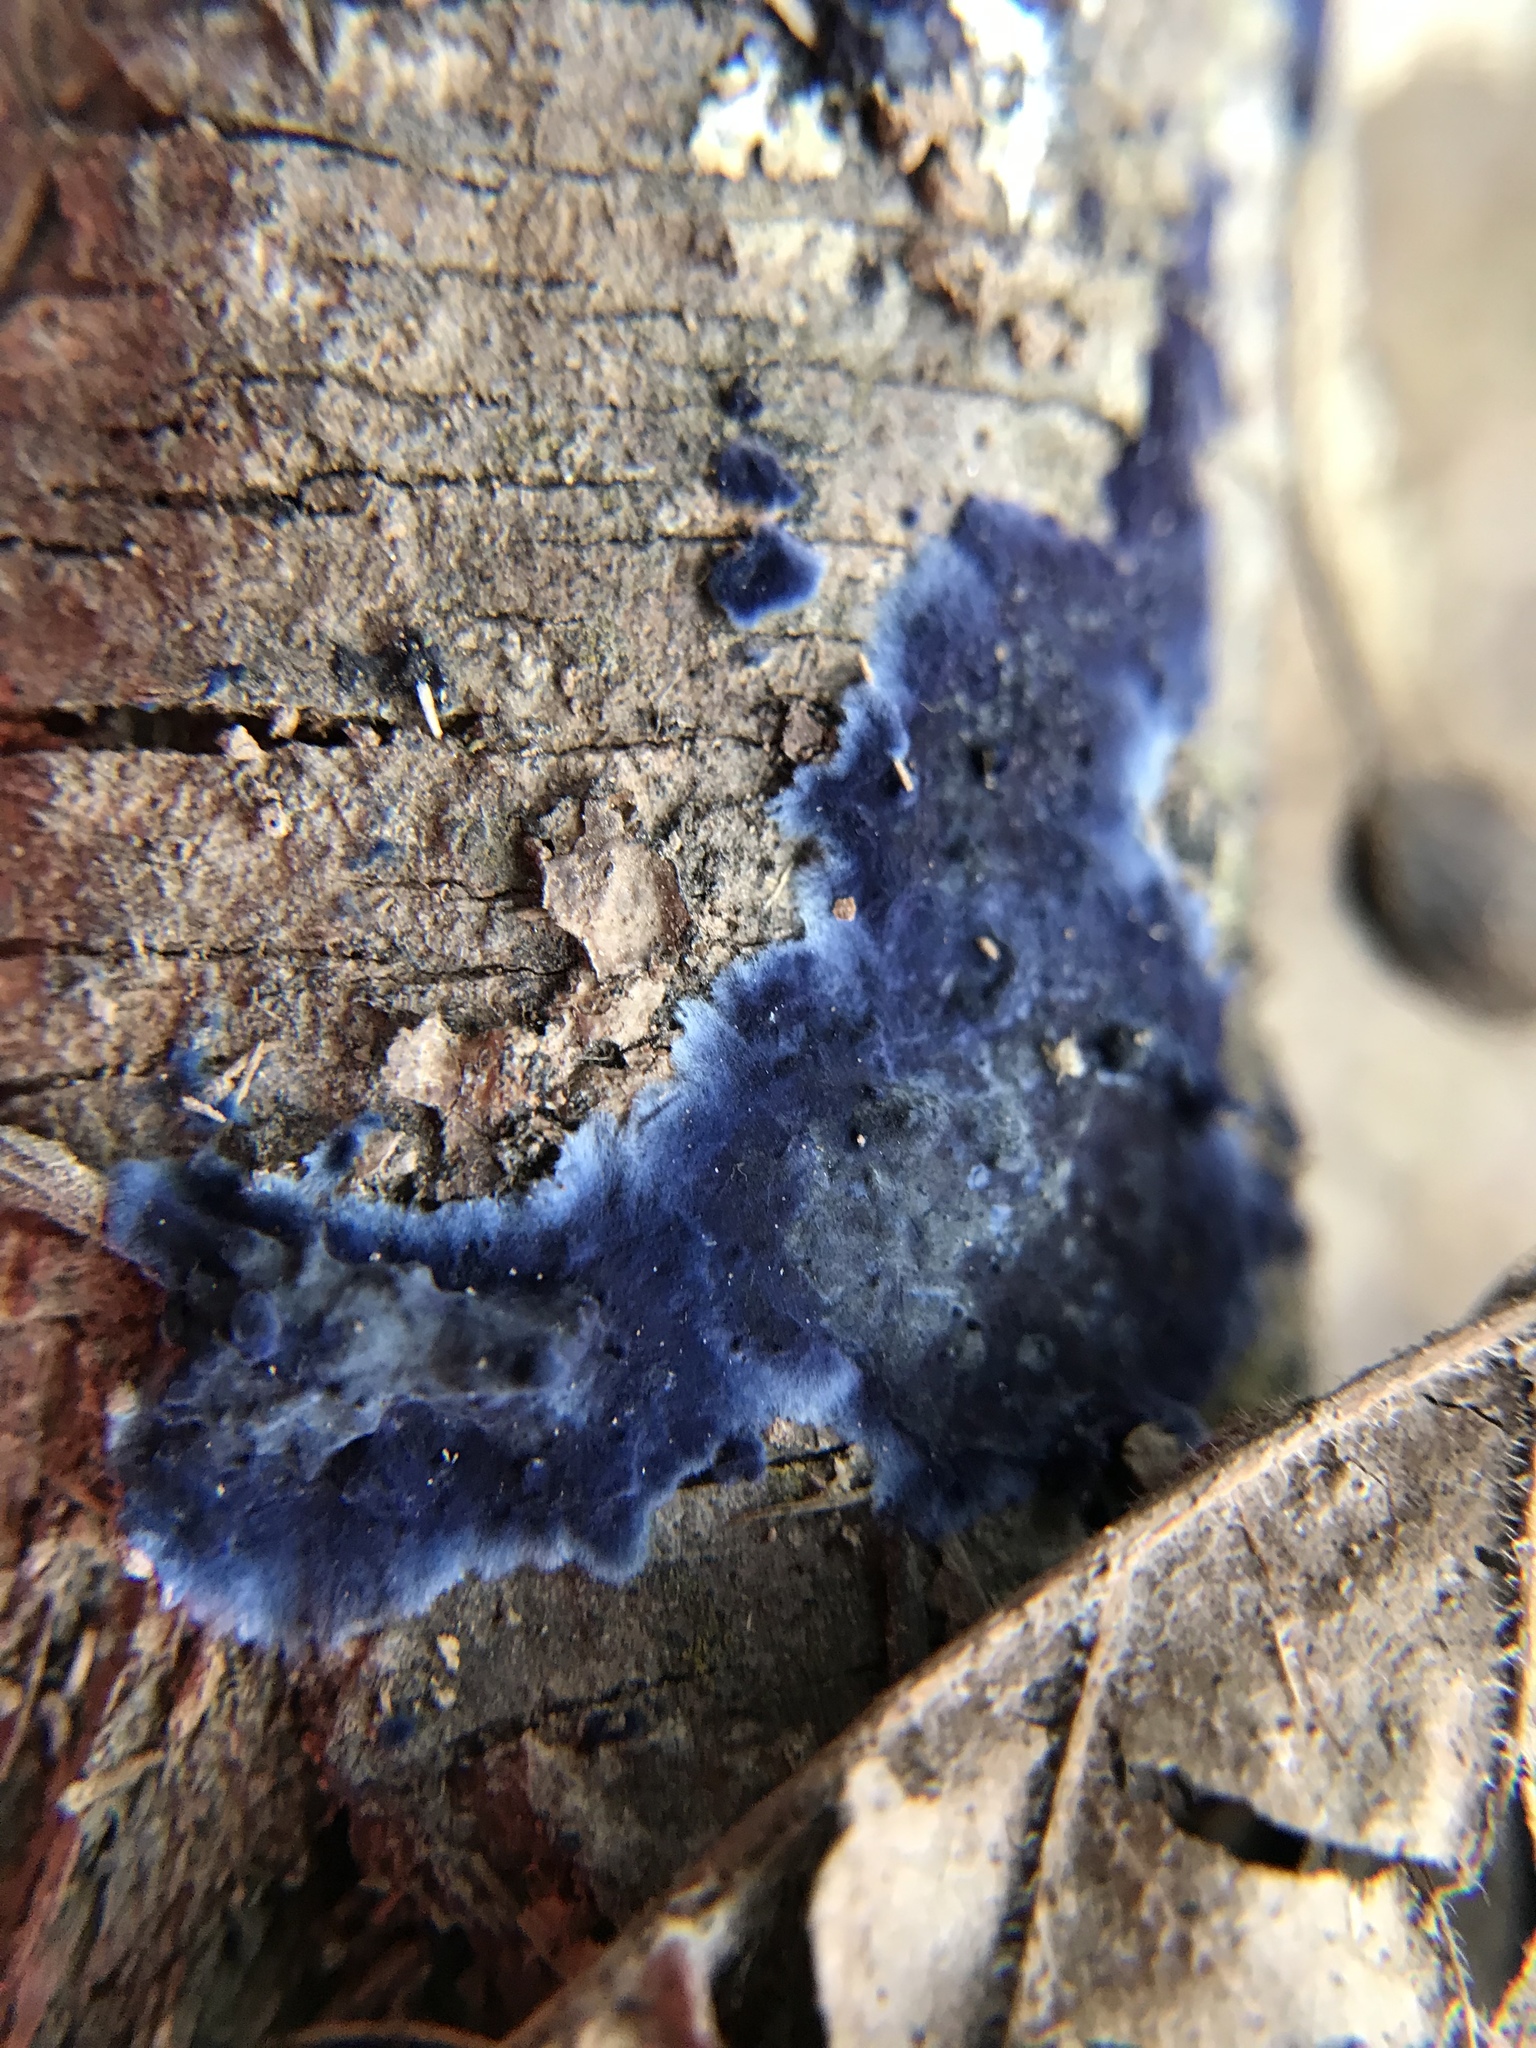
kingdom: Fungi
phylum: Basidiomycota
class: Agaricomycetes
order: Polyporales
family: Phanerochaetaceae
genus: Terana
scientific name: Terana coerulea
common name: Cobalt crust
